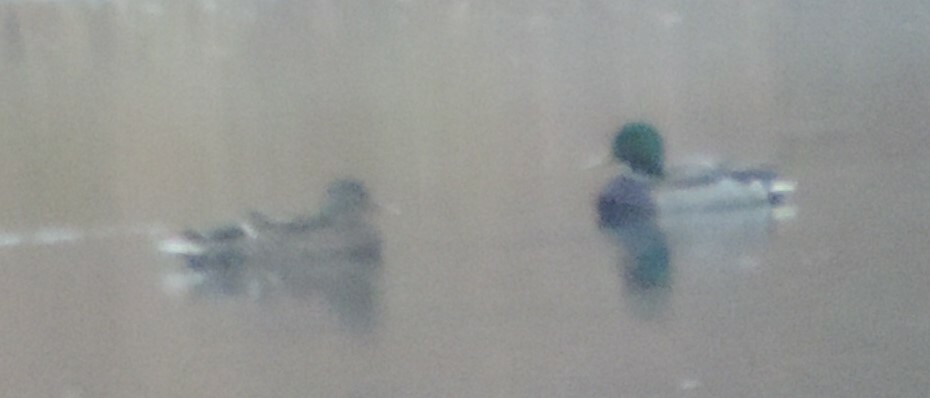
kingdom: Animalia
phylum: Chordata
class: Aves
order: Anseriformes
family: Anatidae
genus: Anas
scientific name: Anas platyrhynchos
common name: Mallard
